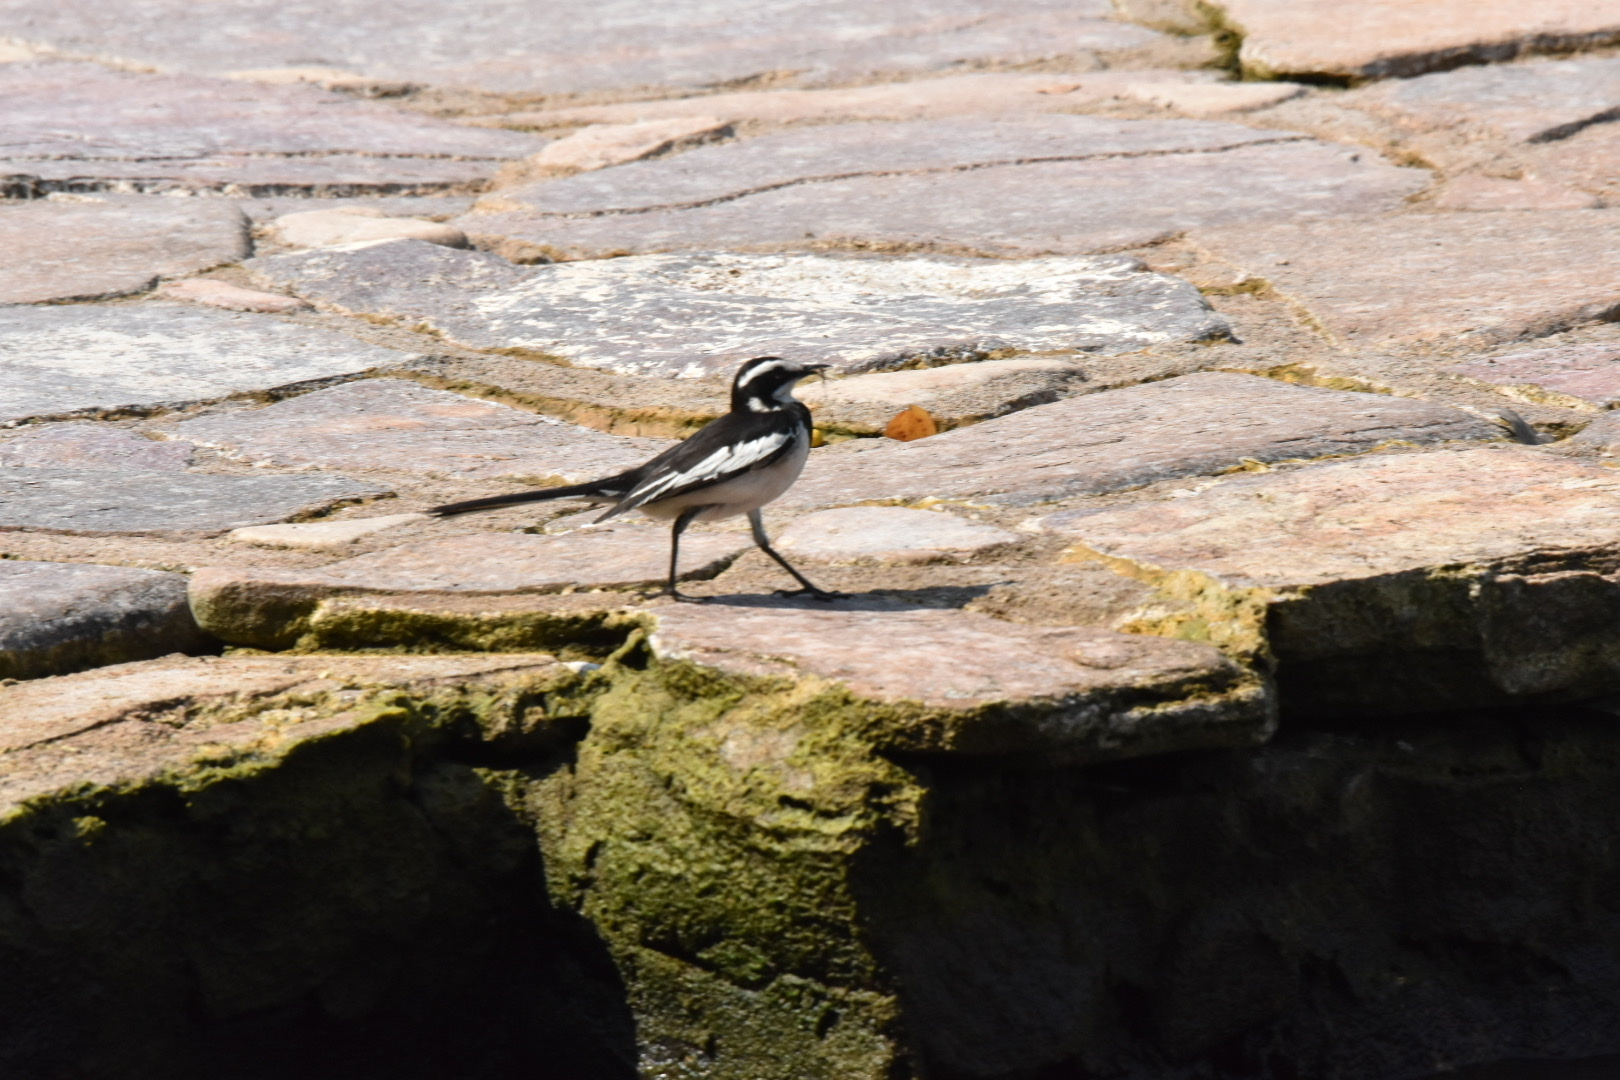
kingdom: Animalia
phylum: Chordata
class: Aves
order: Passeriformes
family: Motacillidae
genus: Motacilla
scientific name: Motacilla aguimp
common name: African pied wagtail
